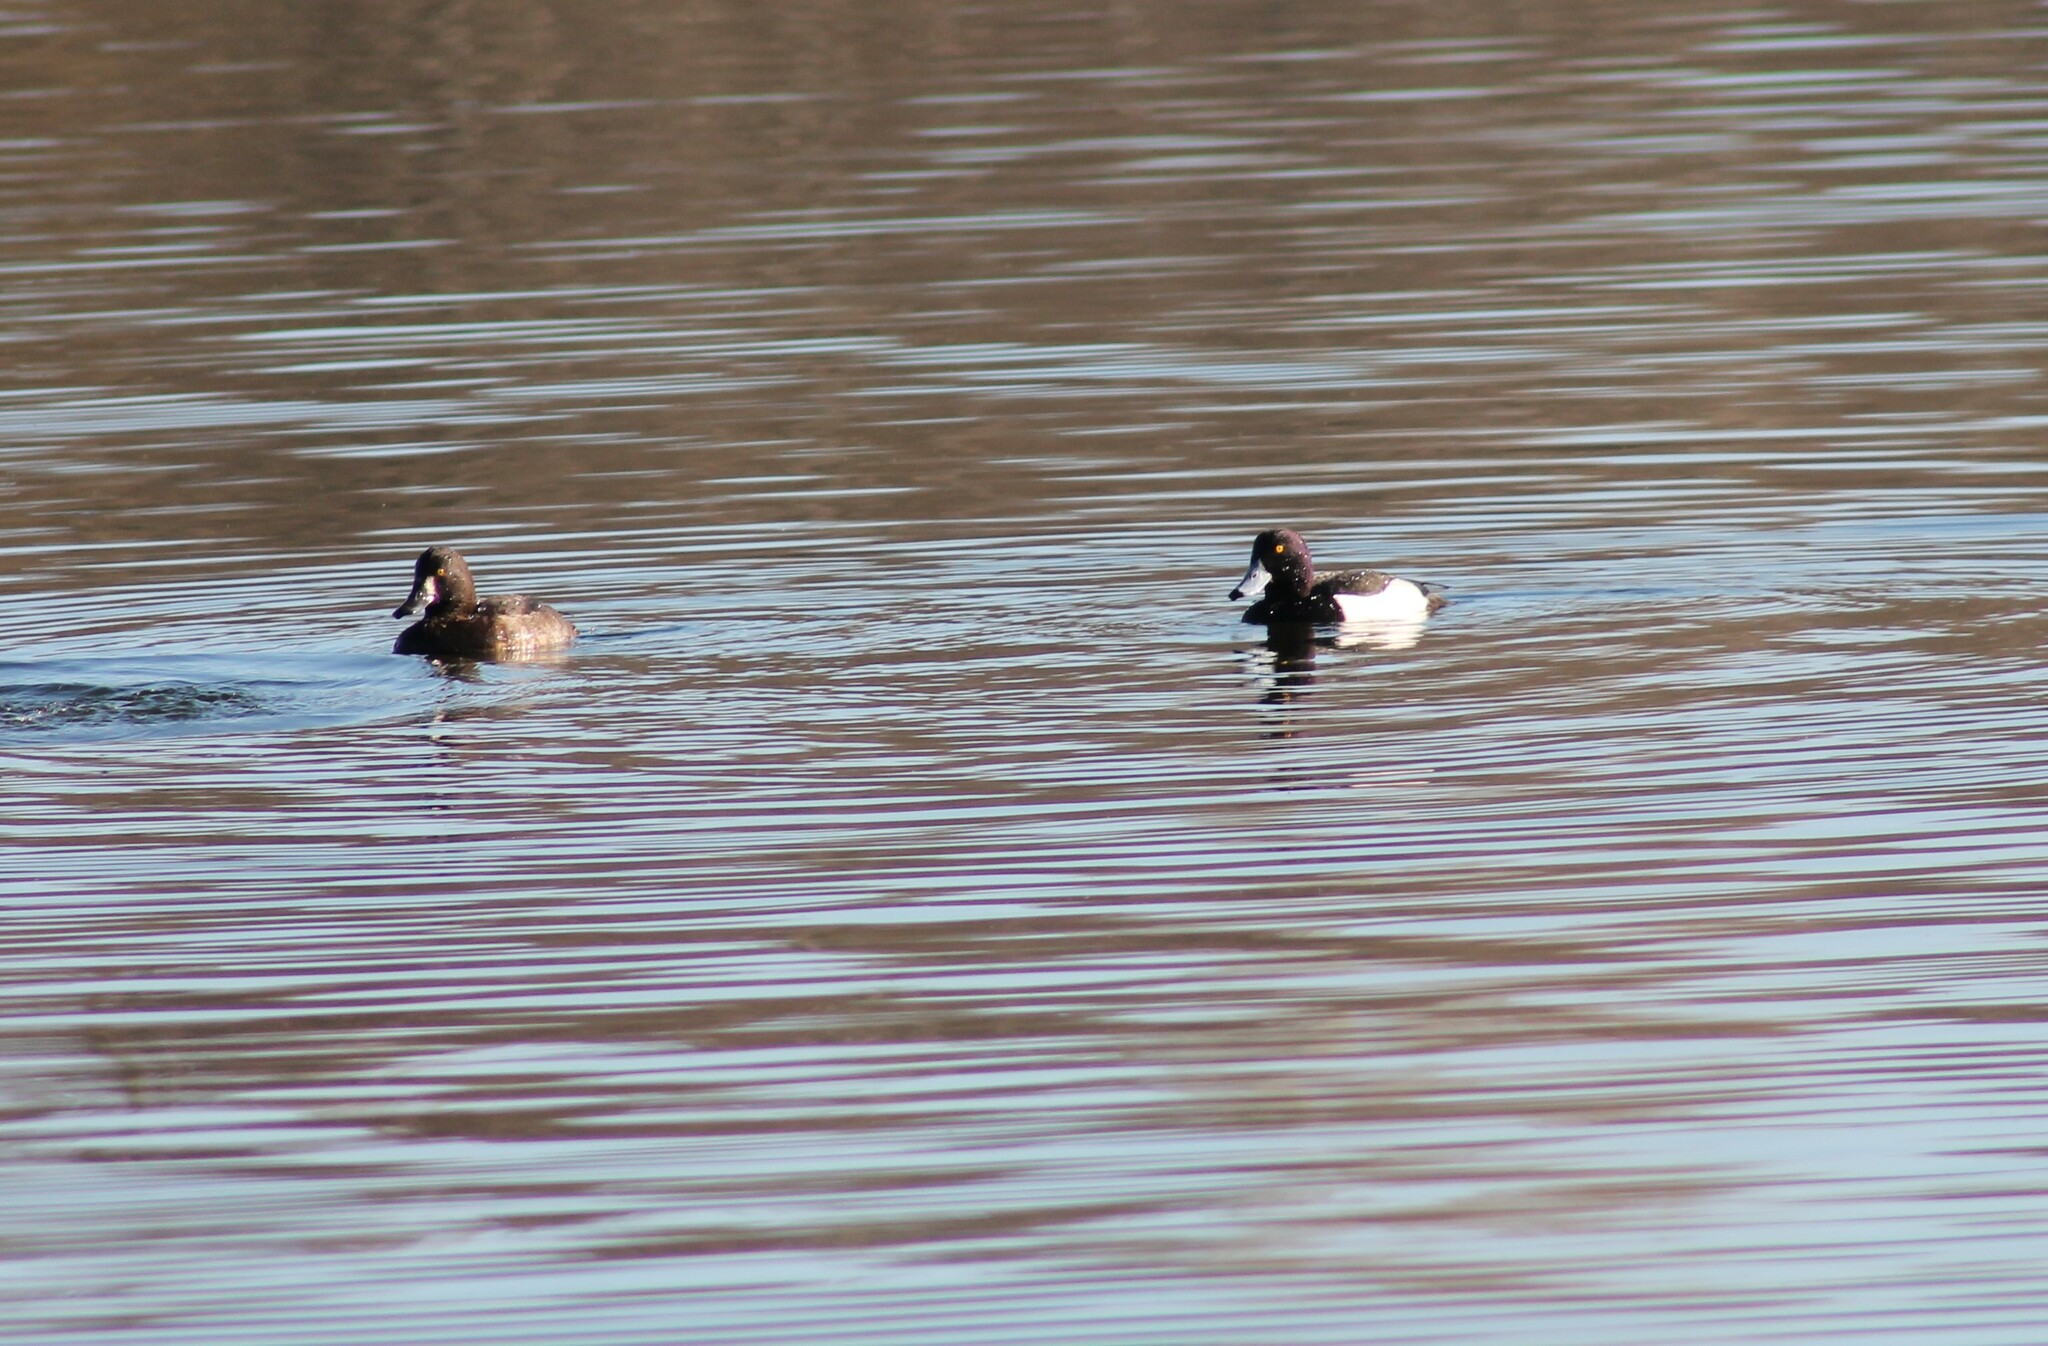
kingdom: Animalia
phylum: Chordata
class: Aves
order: Anseriformes
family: Anatidae
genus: Aythya
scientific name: Aythya fuligula
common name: Tufted duck
